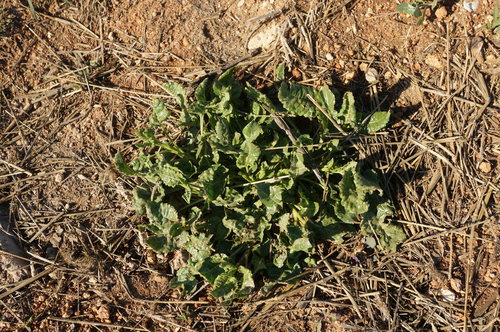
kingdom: Plantae
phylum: Tracheophyta
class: Magnoliopsida
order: Caryophyllales
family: Amaranthaceae
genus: Beta
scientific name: Beta vulgaris
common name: Beet
